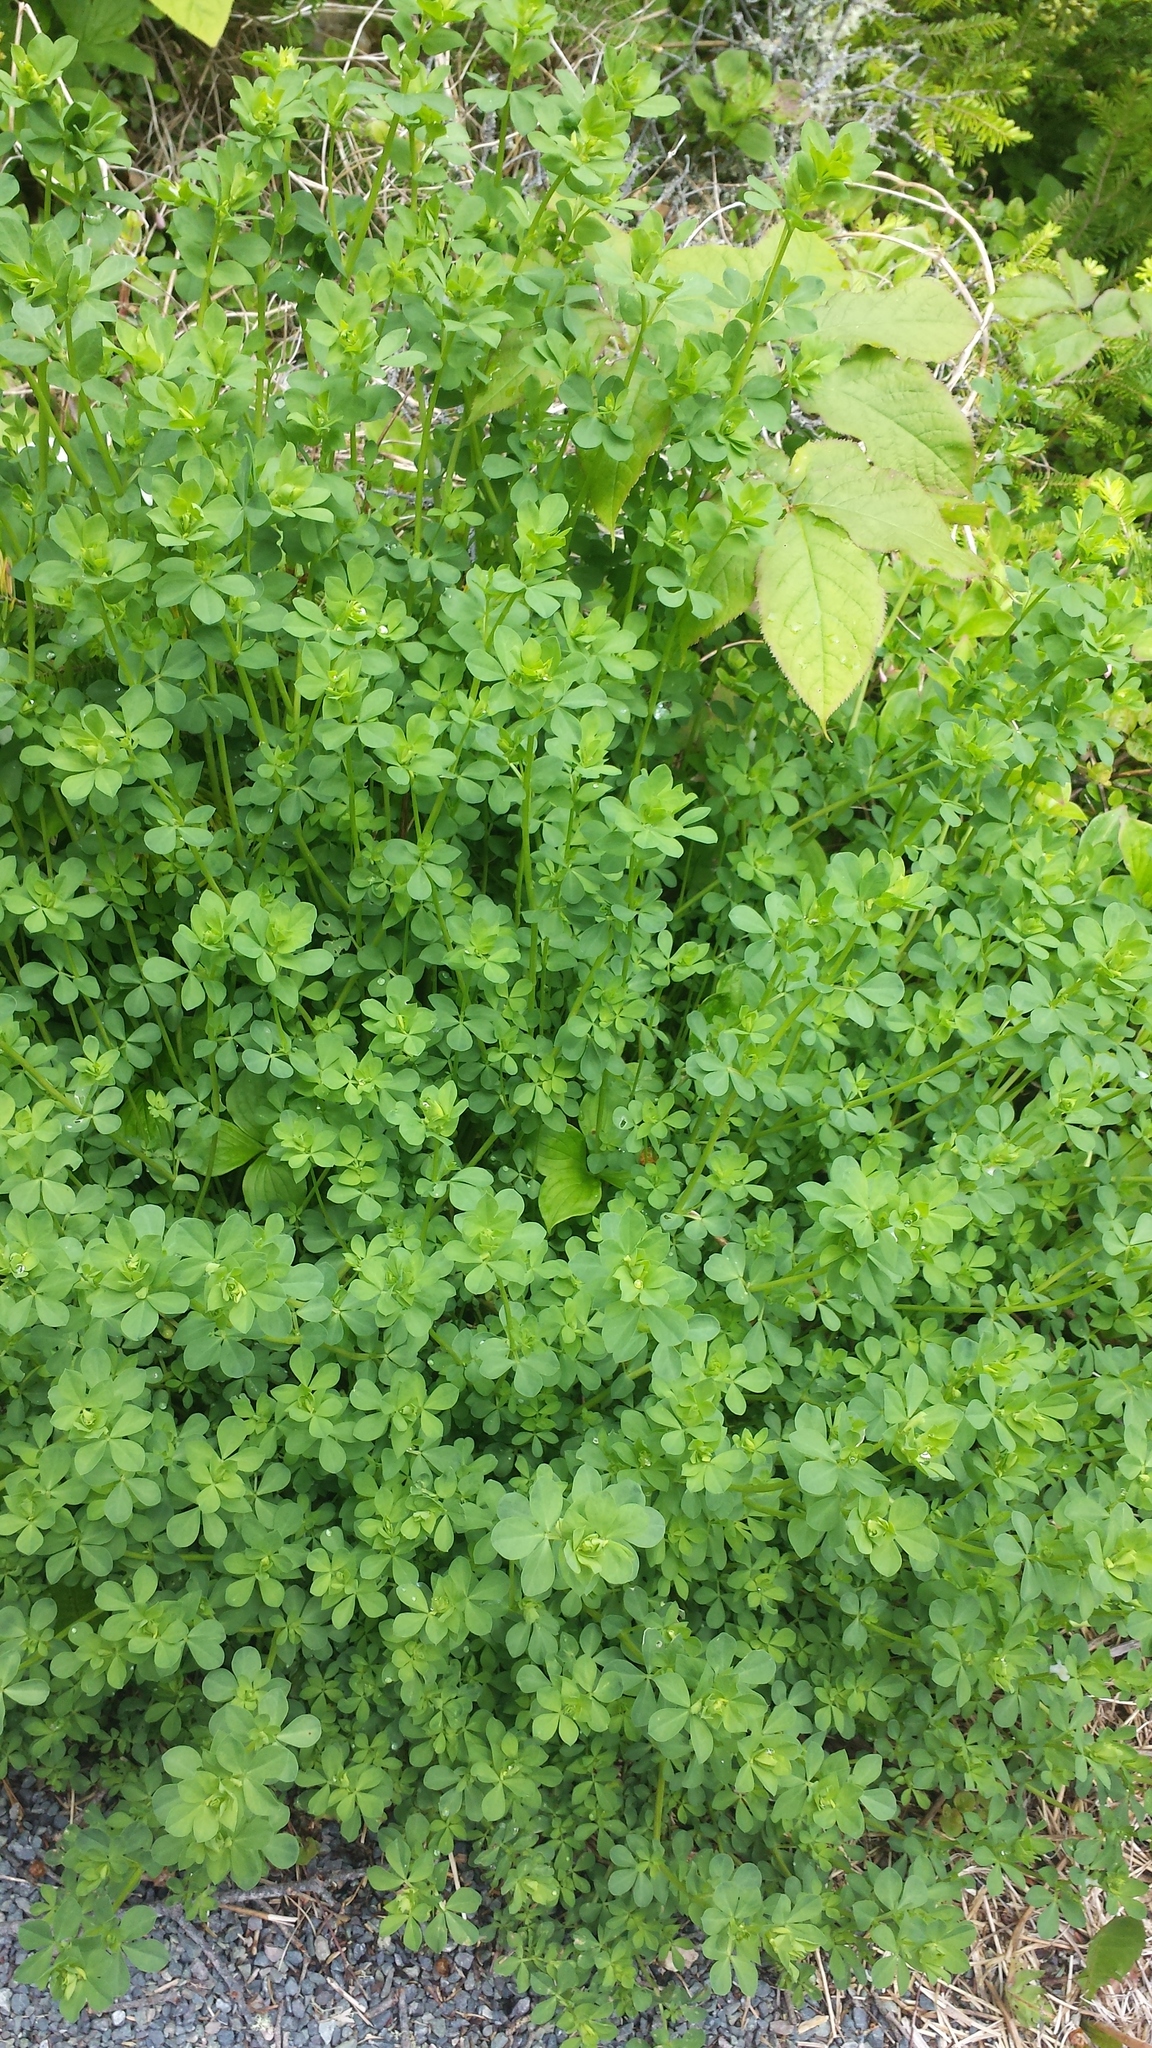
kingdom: Plantae
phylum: Tracheophyta
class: Magnoliopsida
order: Fabales
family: Fabaceae
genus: Lotus
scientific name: Lotus corniculatus
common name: Common bird's-foot-trefoil
